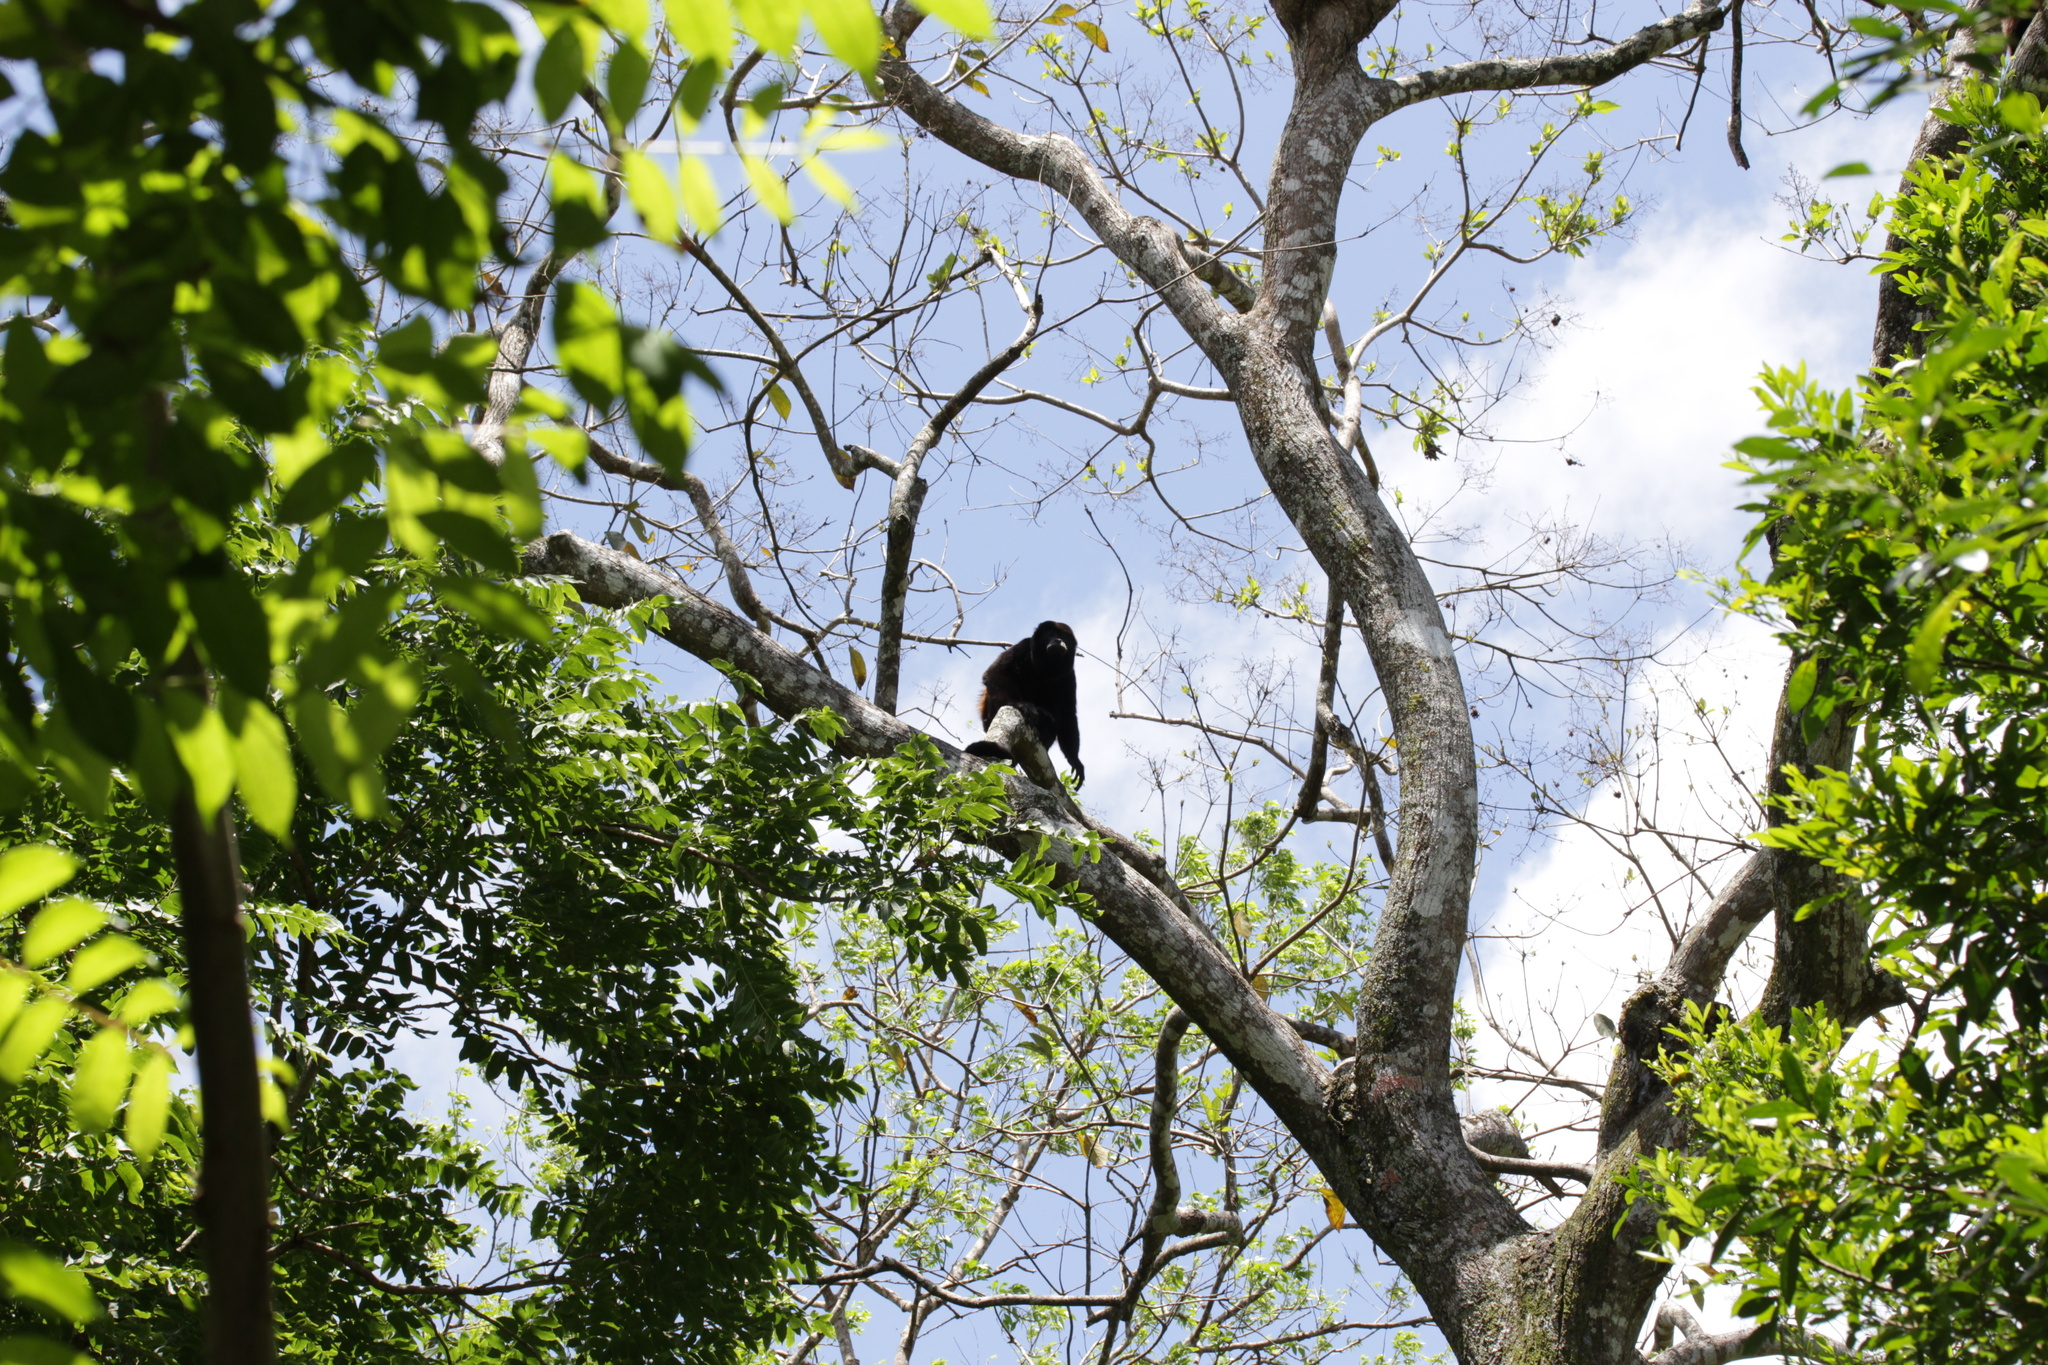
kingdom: Animalia
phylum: Chordata
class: Mammalia
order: Primates
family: Atelidae
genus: Alouatta
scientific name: Alouatta palliata
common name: Mantled howler
